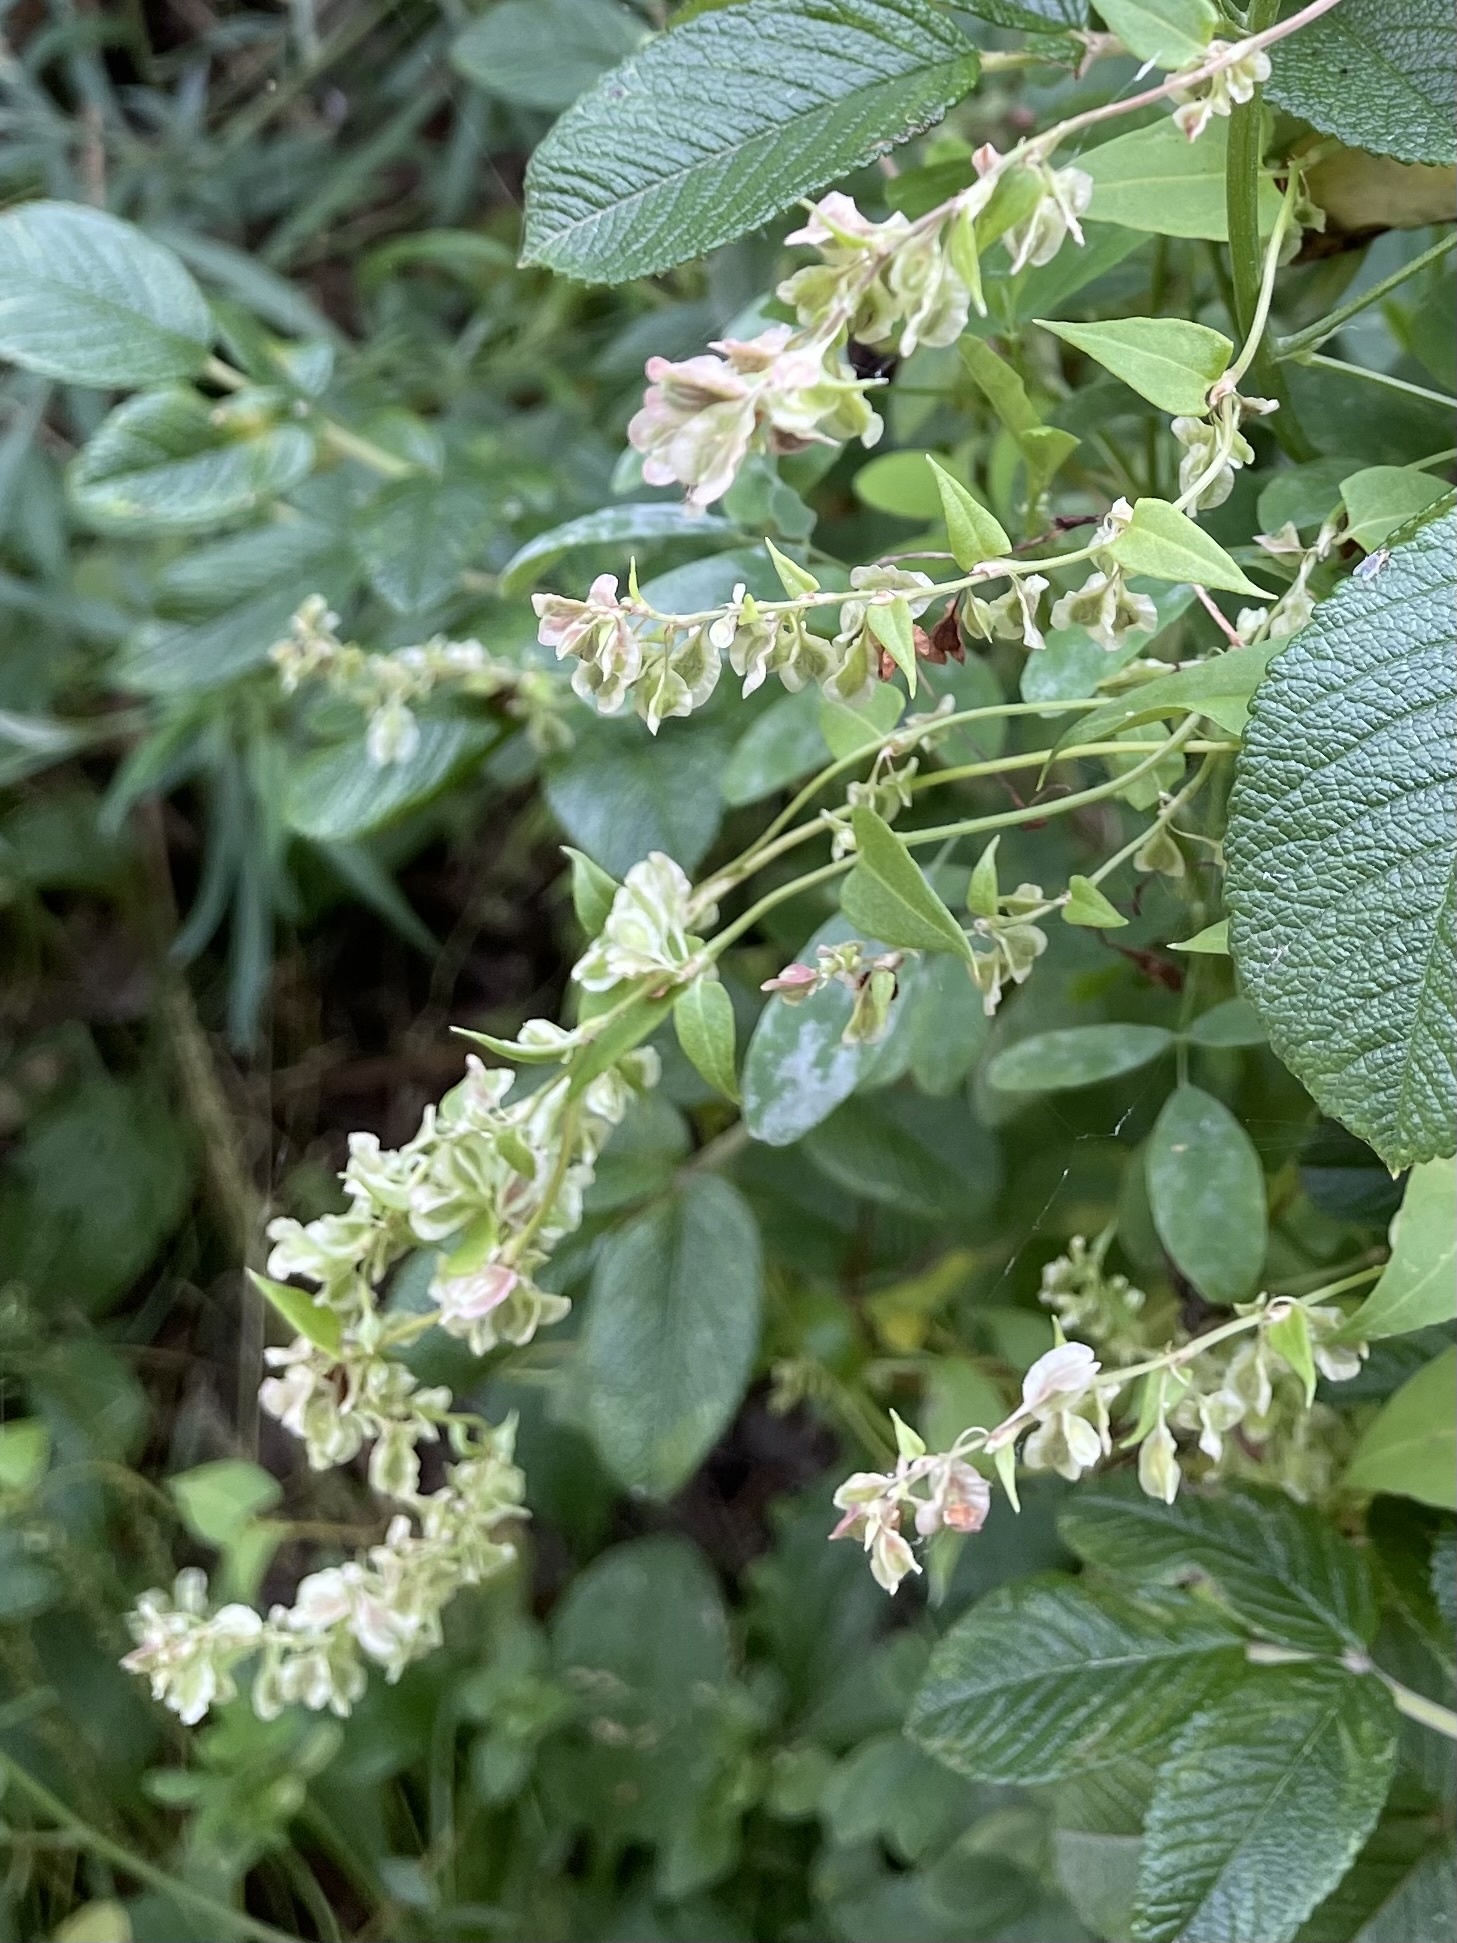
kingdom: Plantae
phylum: Tracheophyta
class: Magnoliopsida
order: Caryophyllales
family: Polygonaceae
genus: Fallopia
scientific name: Fallopia dumetorum
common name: Copse-bindweed
